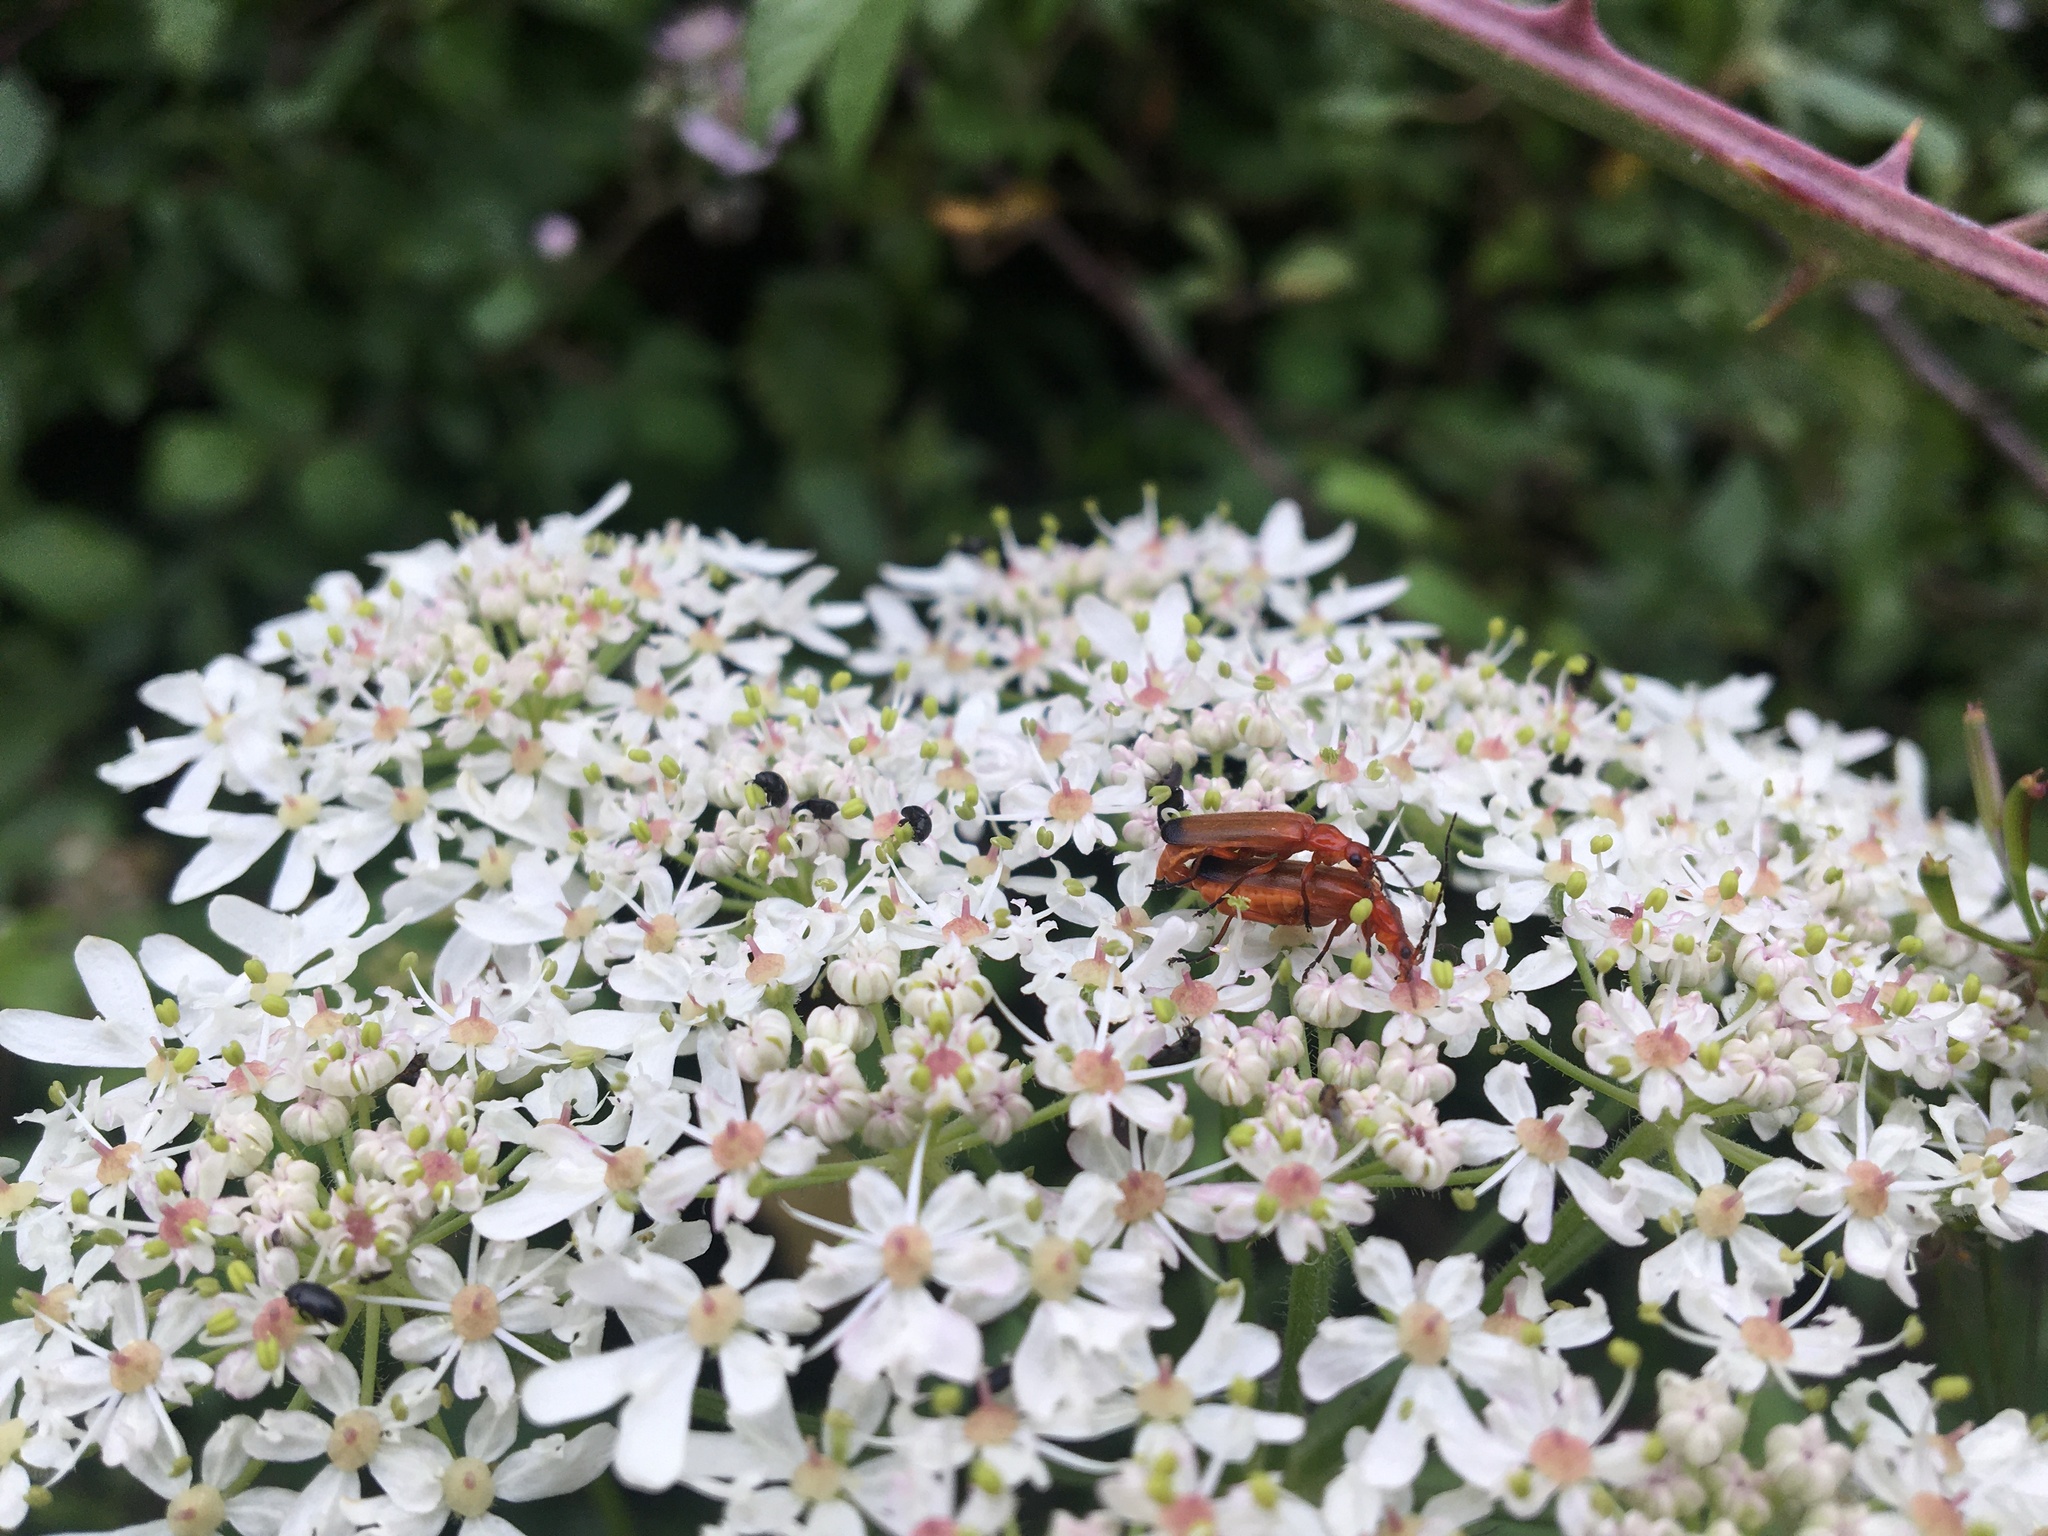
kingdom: Animalia
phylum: Arthropoda
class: Insecta
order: Coleoptera
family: Cantharidae
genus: Rhagonycha
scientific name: Rhagonycha fulva
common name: Common red soldier beetle
